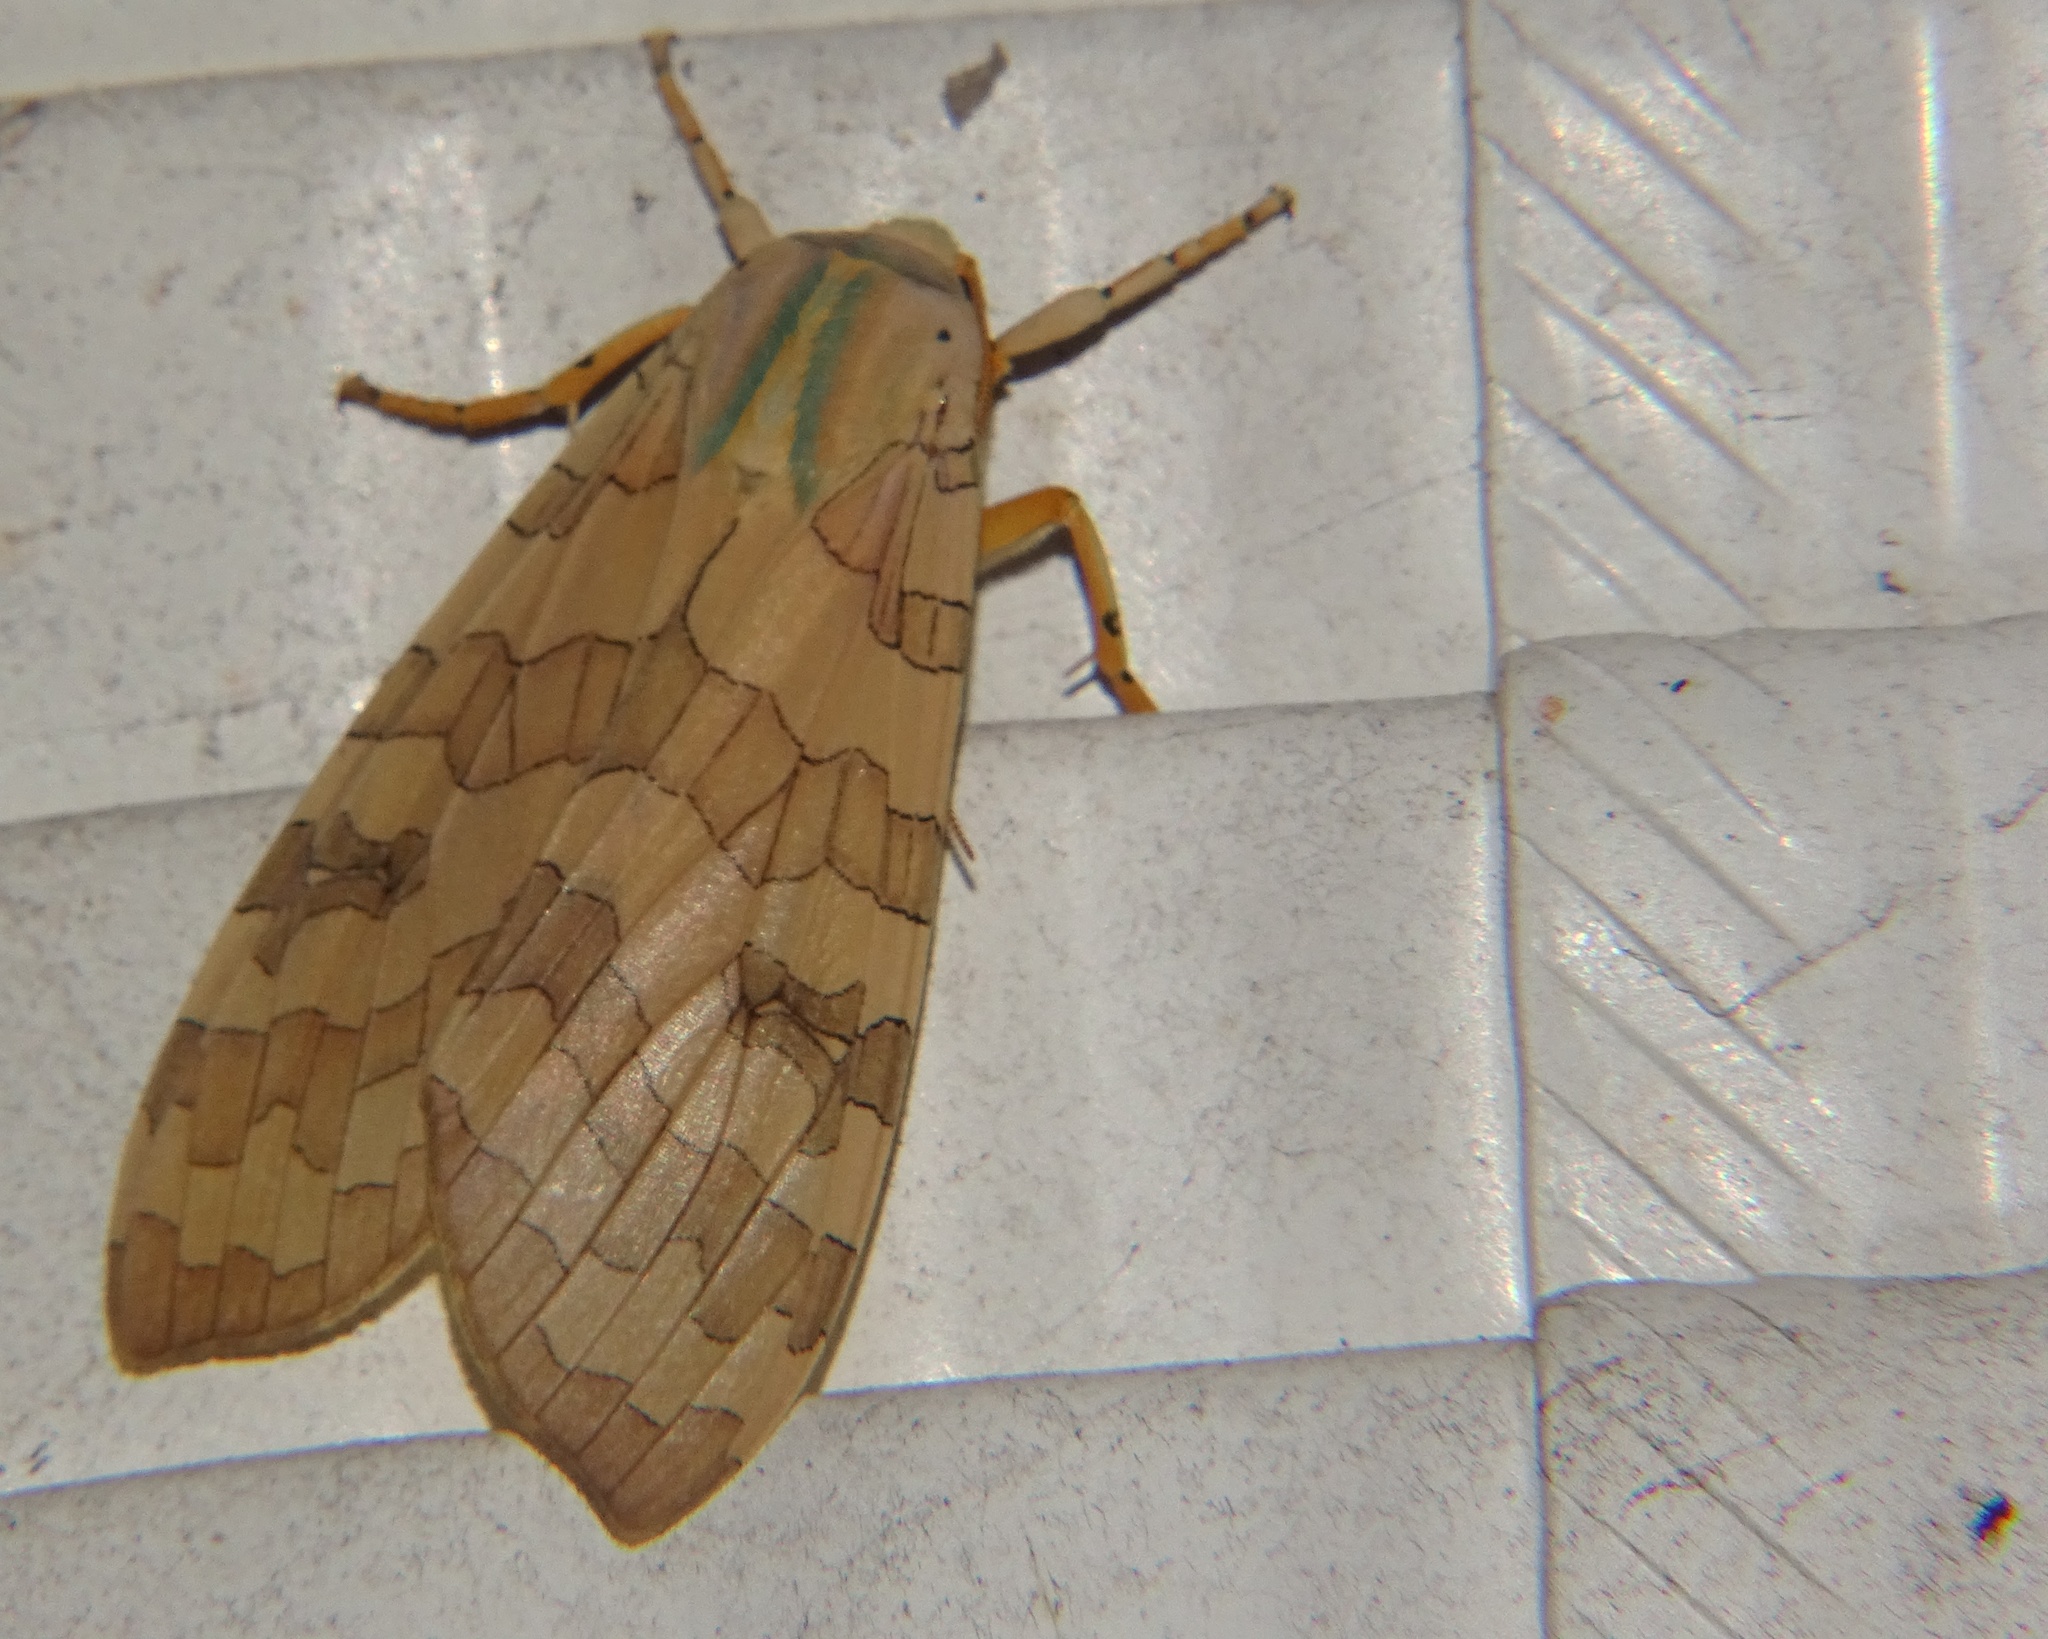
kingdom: Animalia
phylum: Arthropoda
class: Insecta
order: Lepidoptera
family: Erebidae
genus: Halysidota
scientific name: Halysidota
